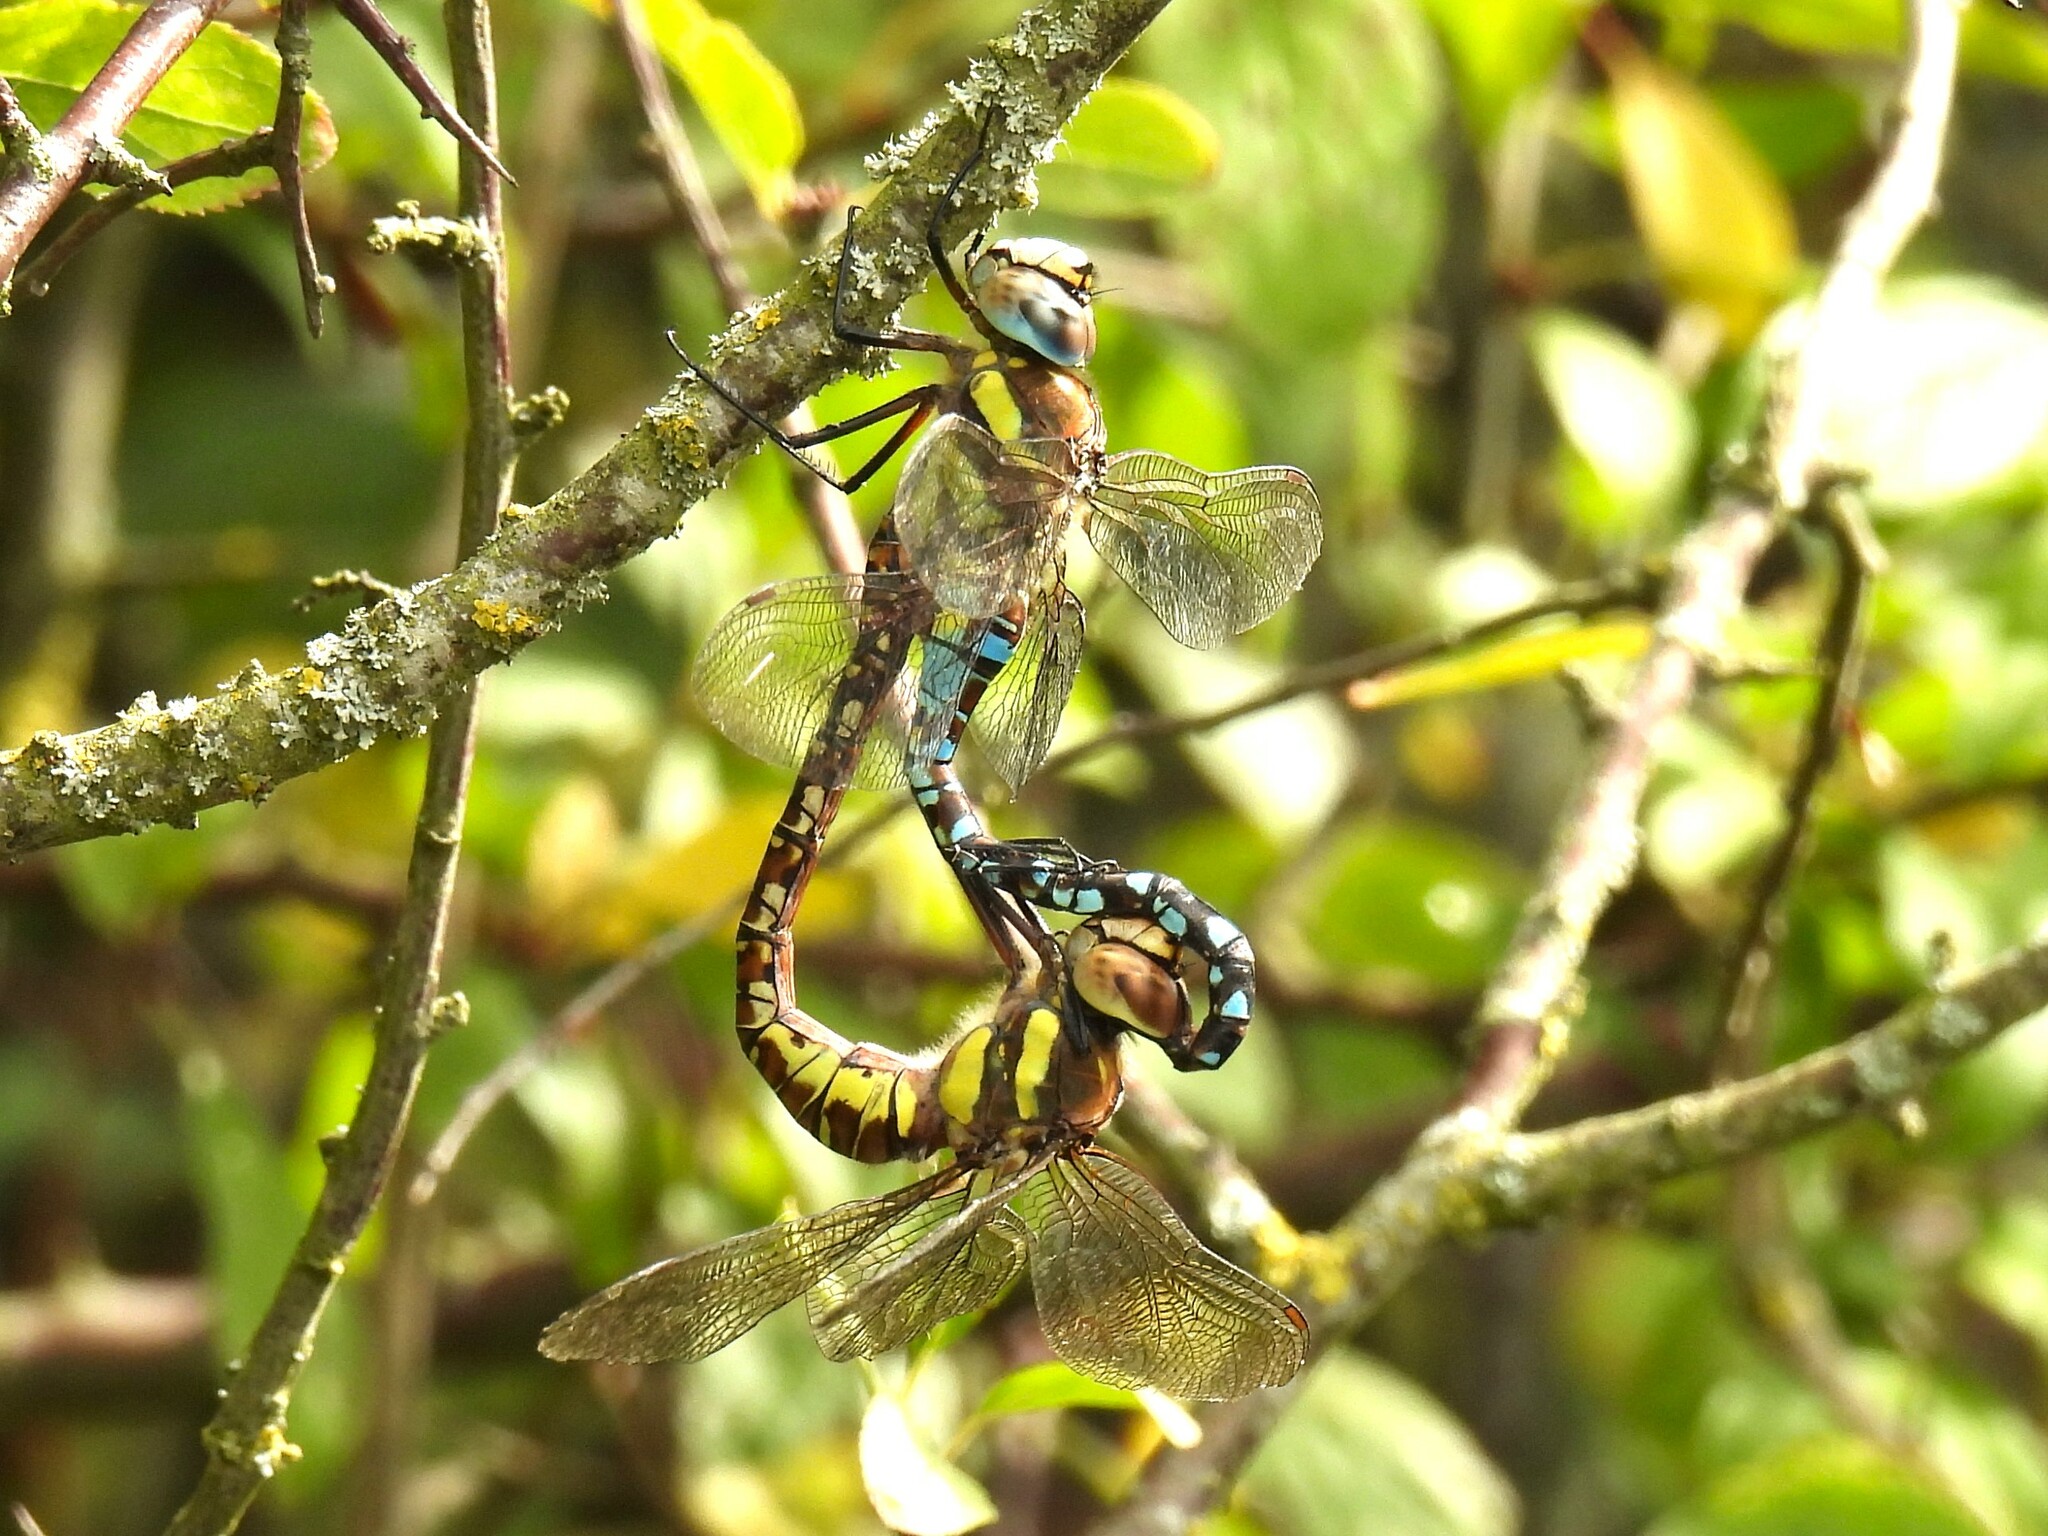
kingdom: Animalia
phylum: Arthropoda
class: Insecta
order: Odonata
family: Aeshnidae
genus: Aeshna
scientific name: Aeshna mixta
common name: Migrant hawker
